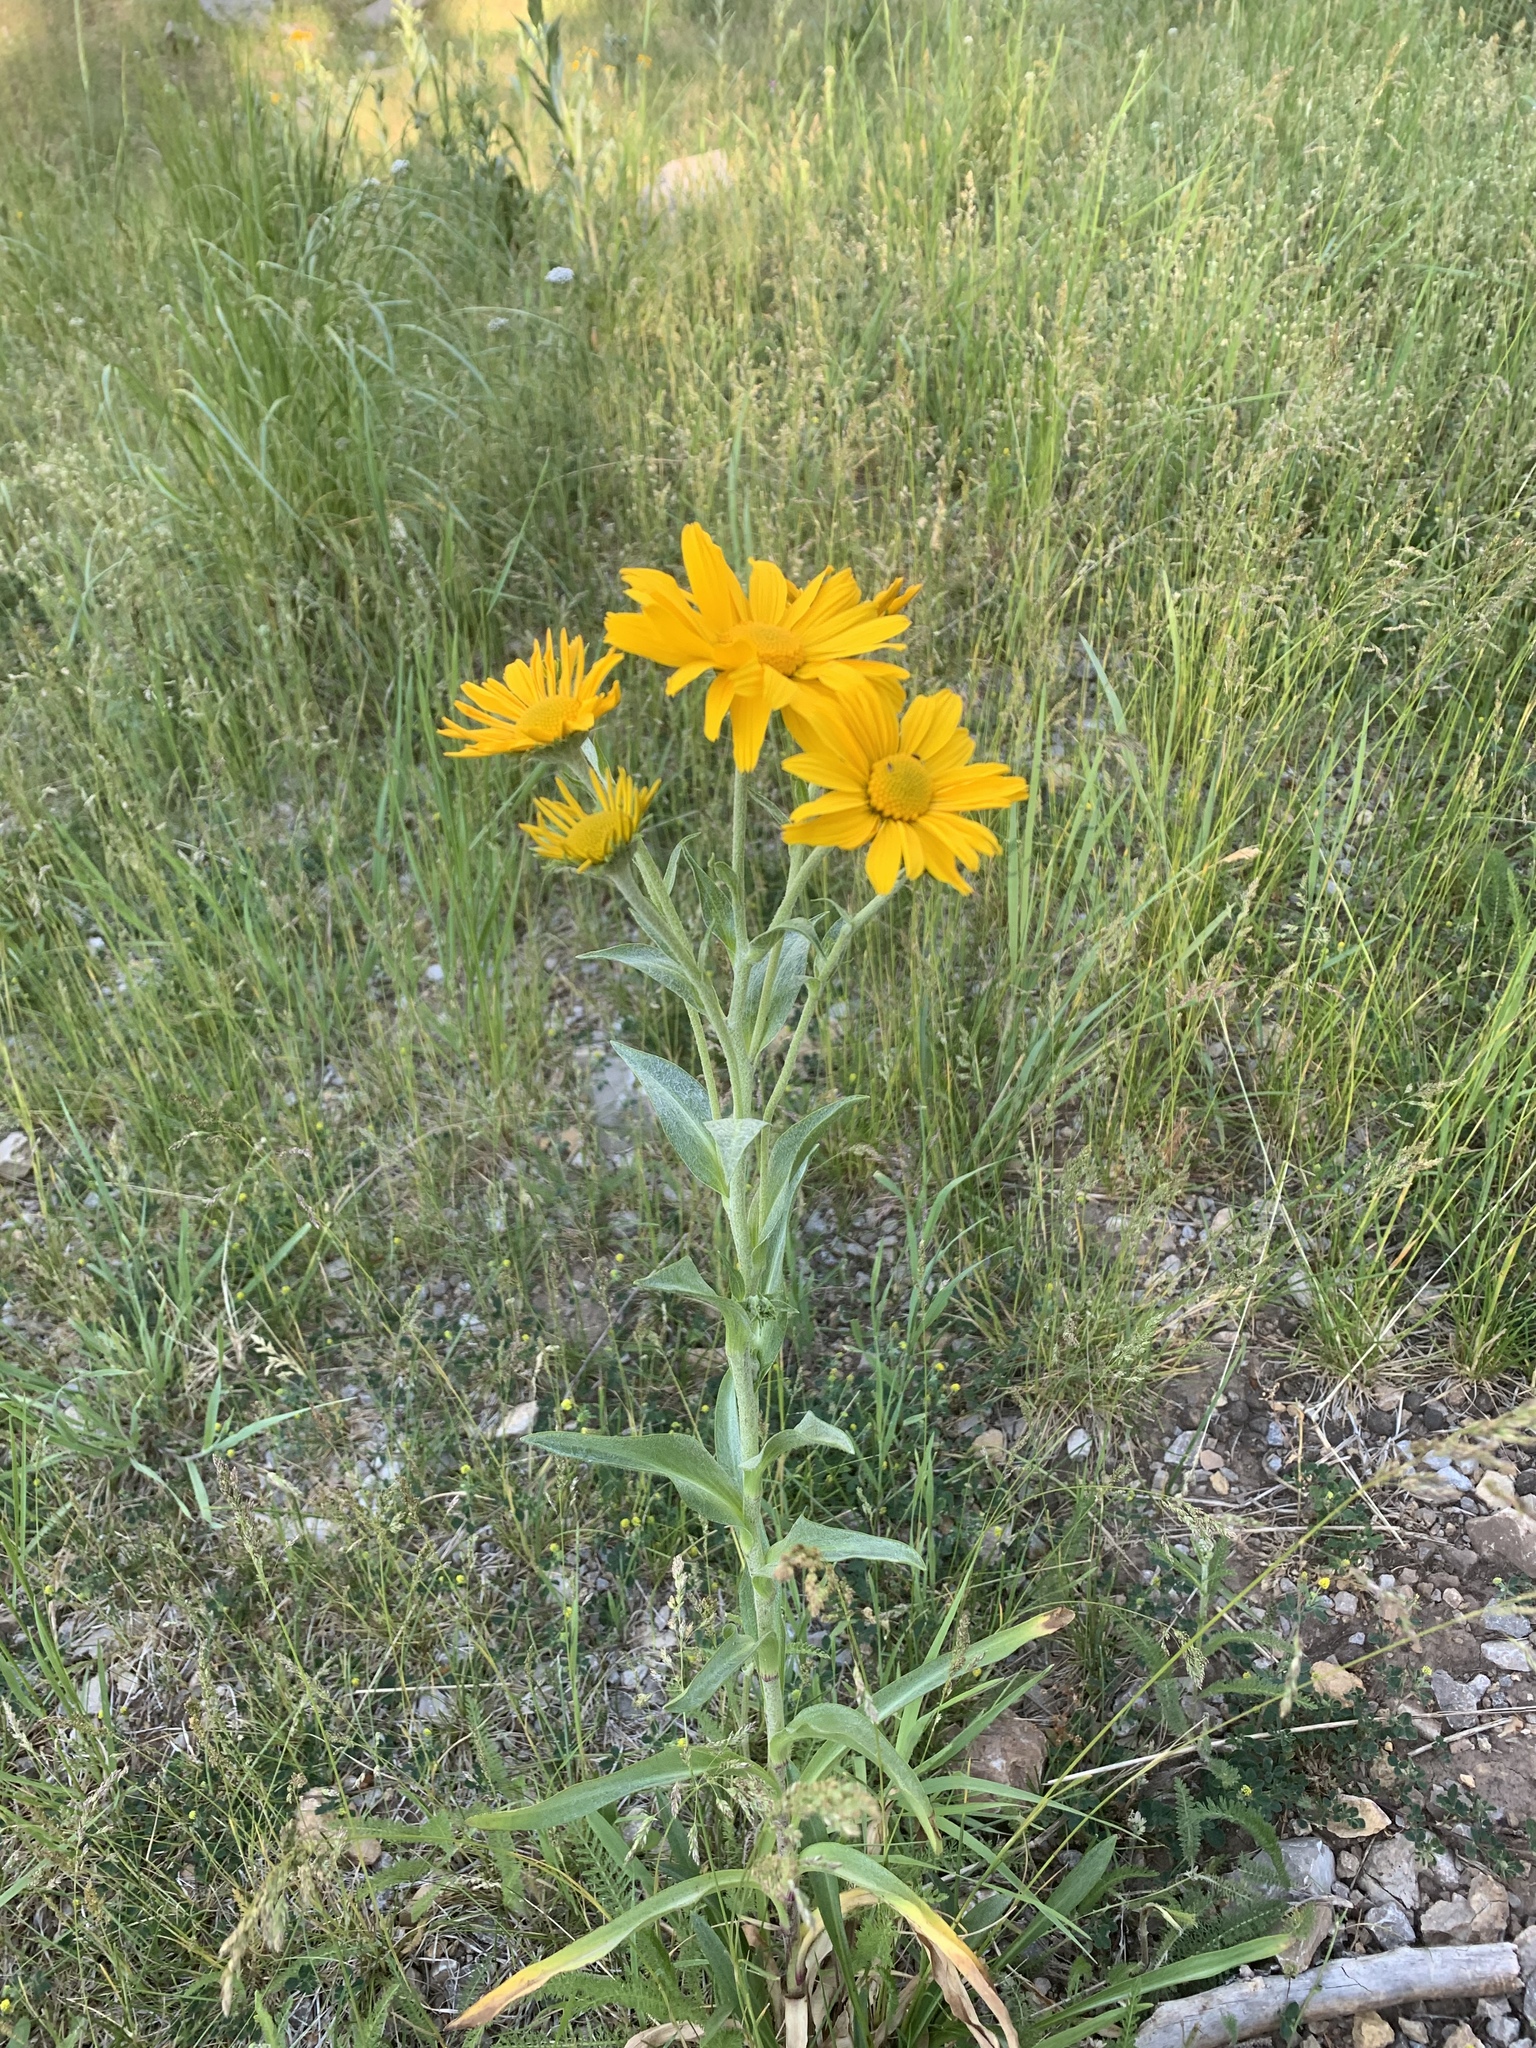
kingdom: Plantae
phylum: Tracheophyta
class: Magnoliopsida
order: Asterales
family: Asteraceae
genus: Hymenoxys
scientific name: Hymenoxys hoopesii
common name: Orange-sneezeweed
